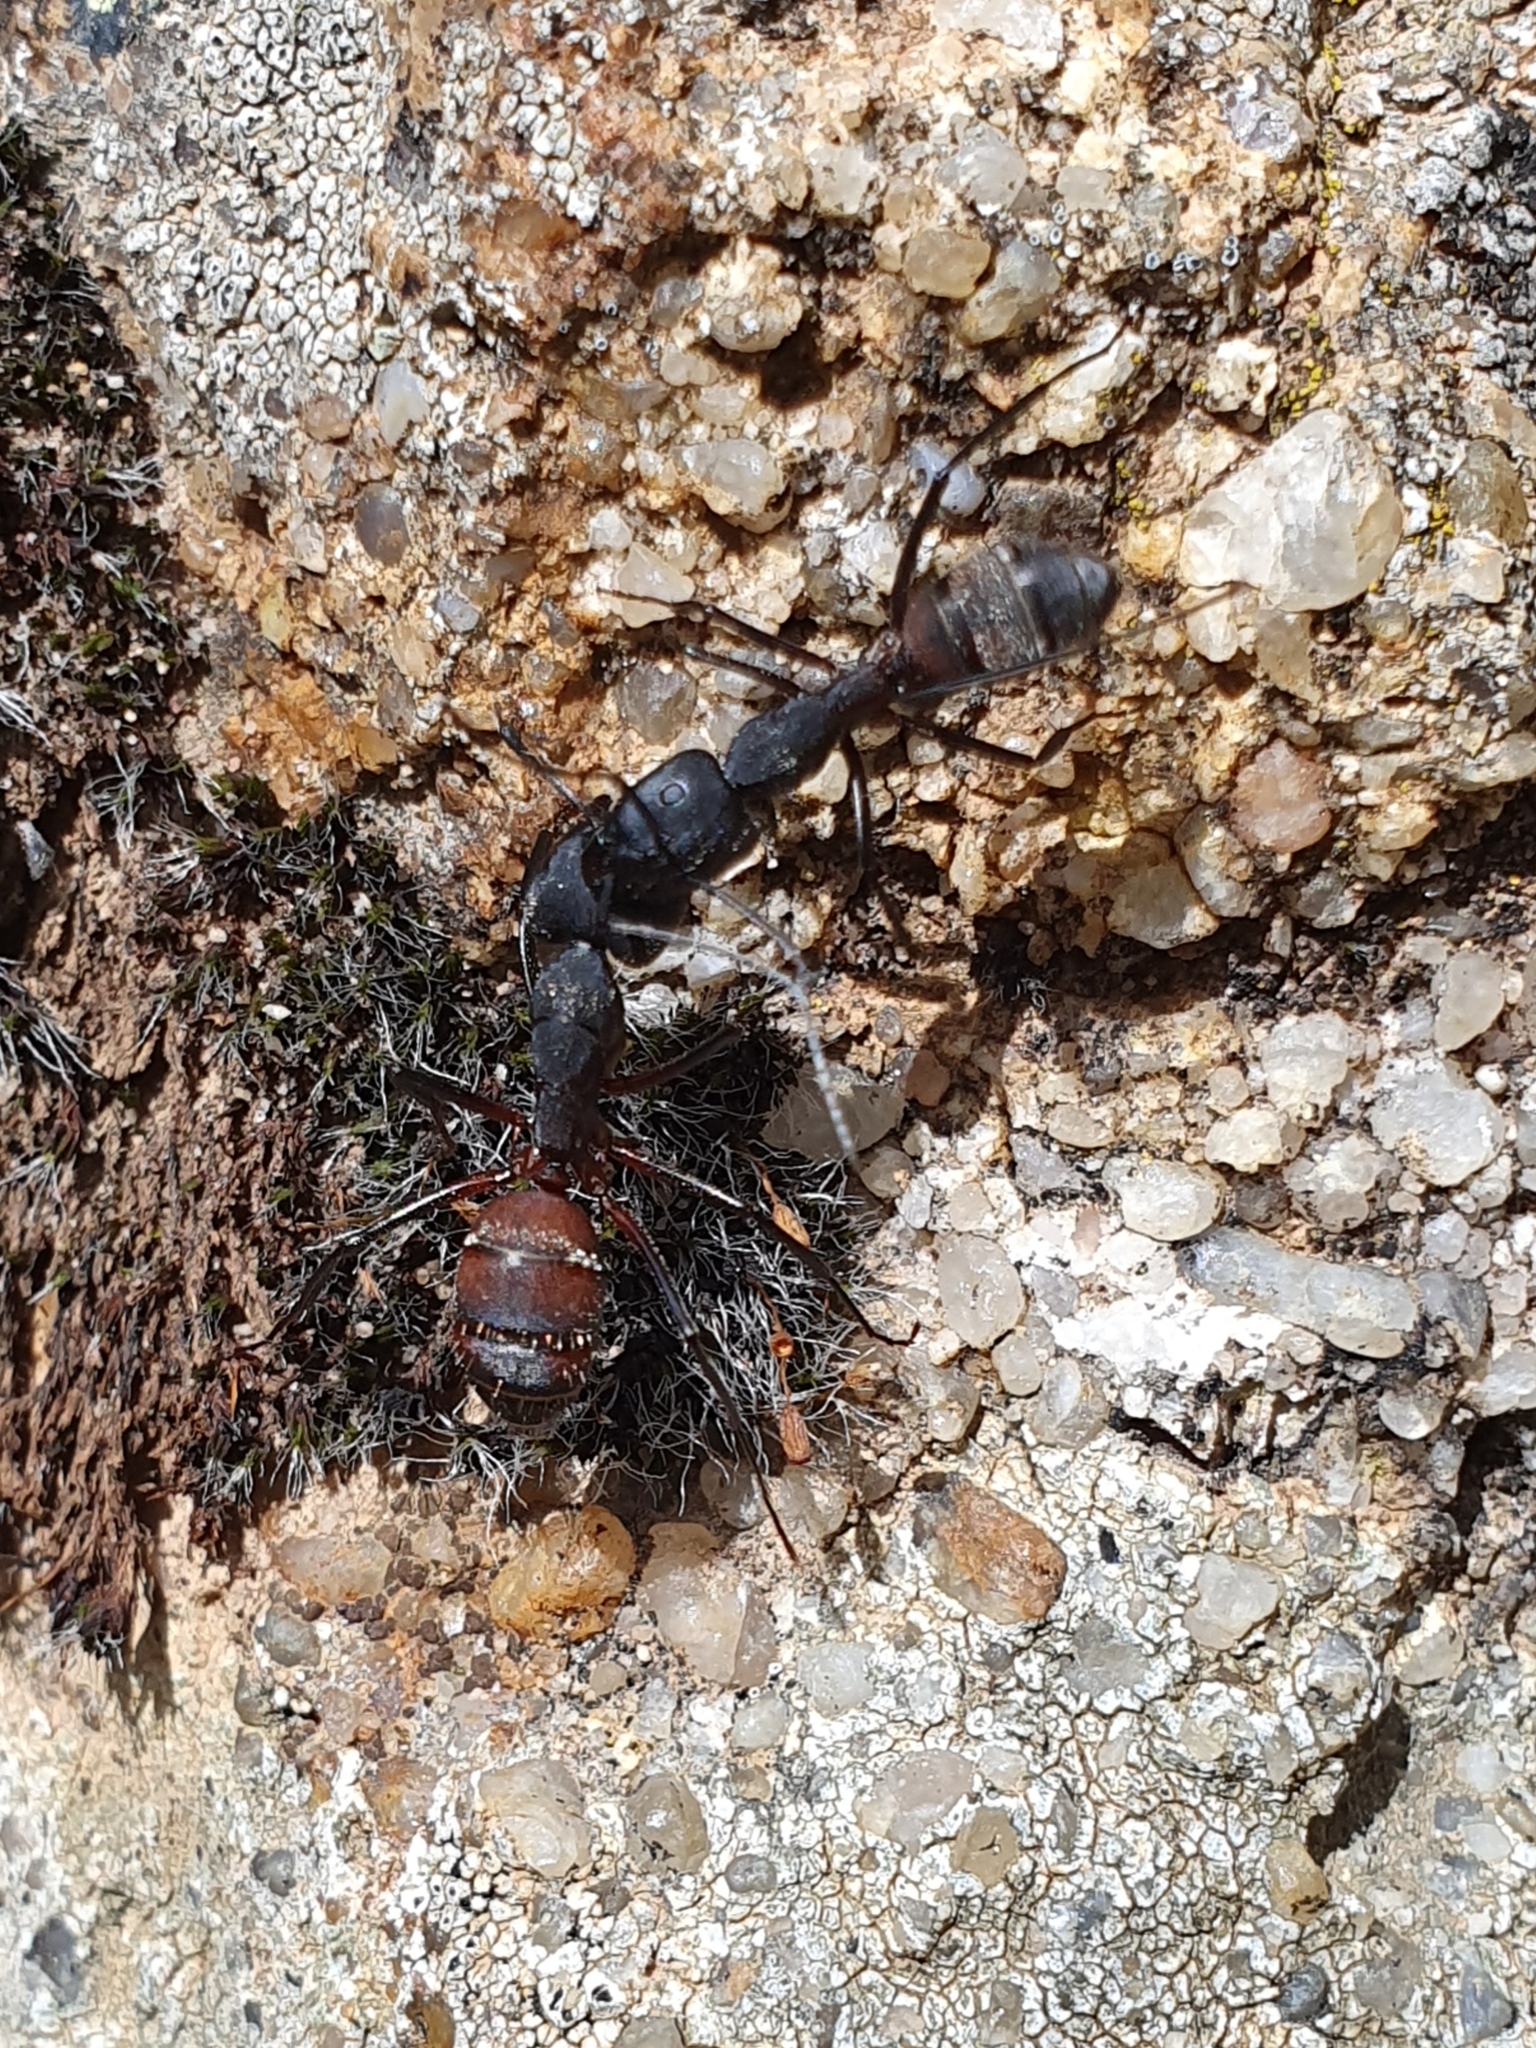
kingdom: Animalia
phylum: Arthropoda
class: Insecta
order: Hymenoptera
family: Formicidae
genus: Camponotus
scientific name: Camponotus cruentatus
